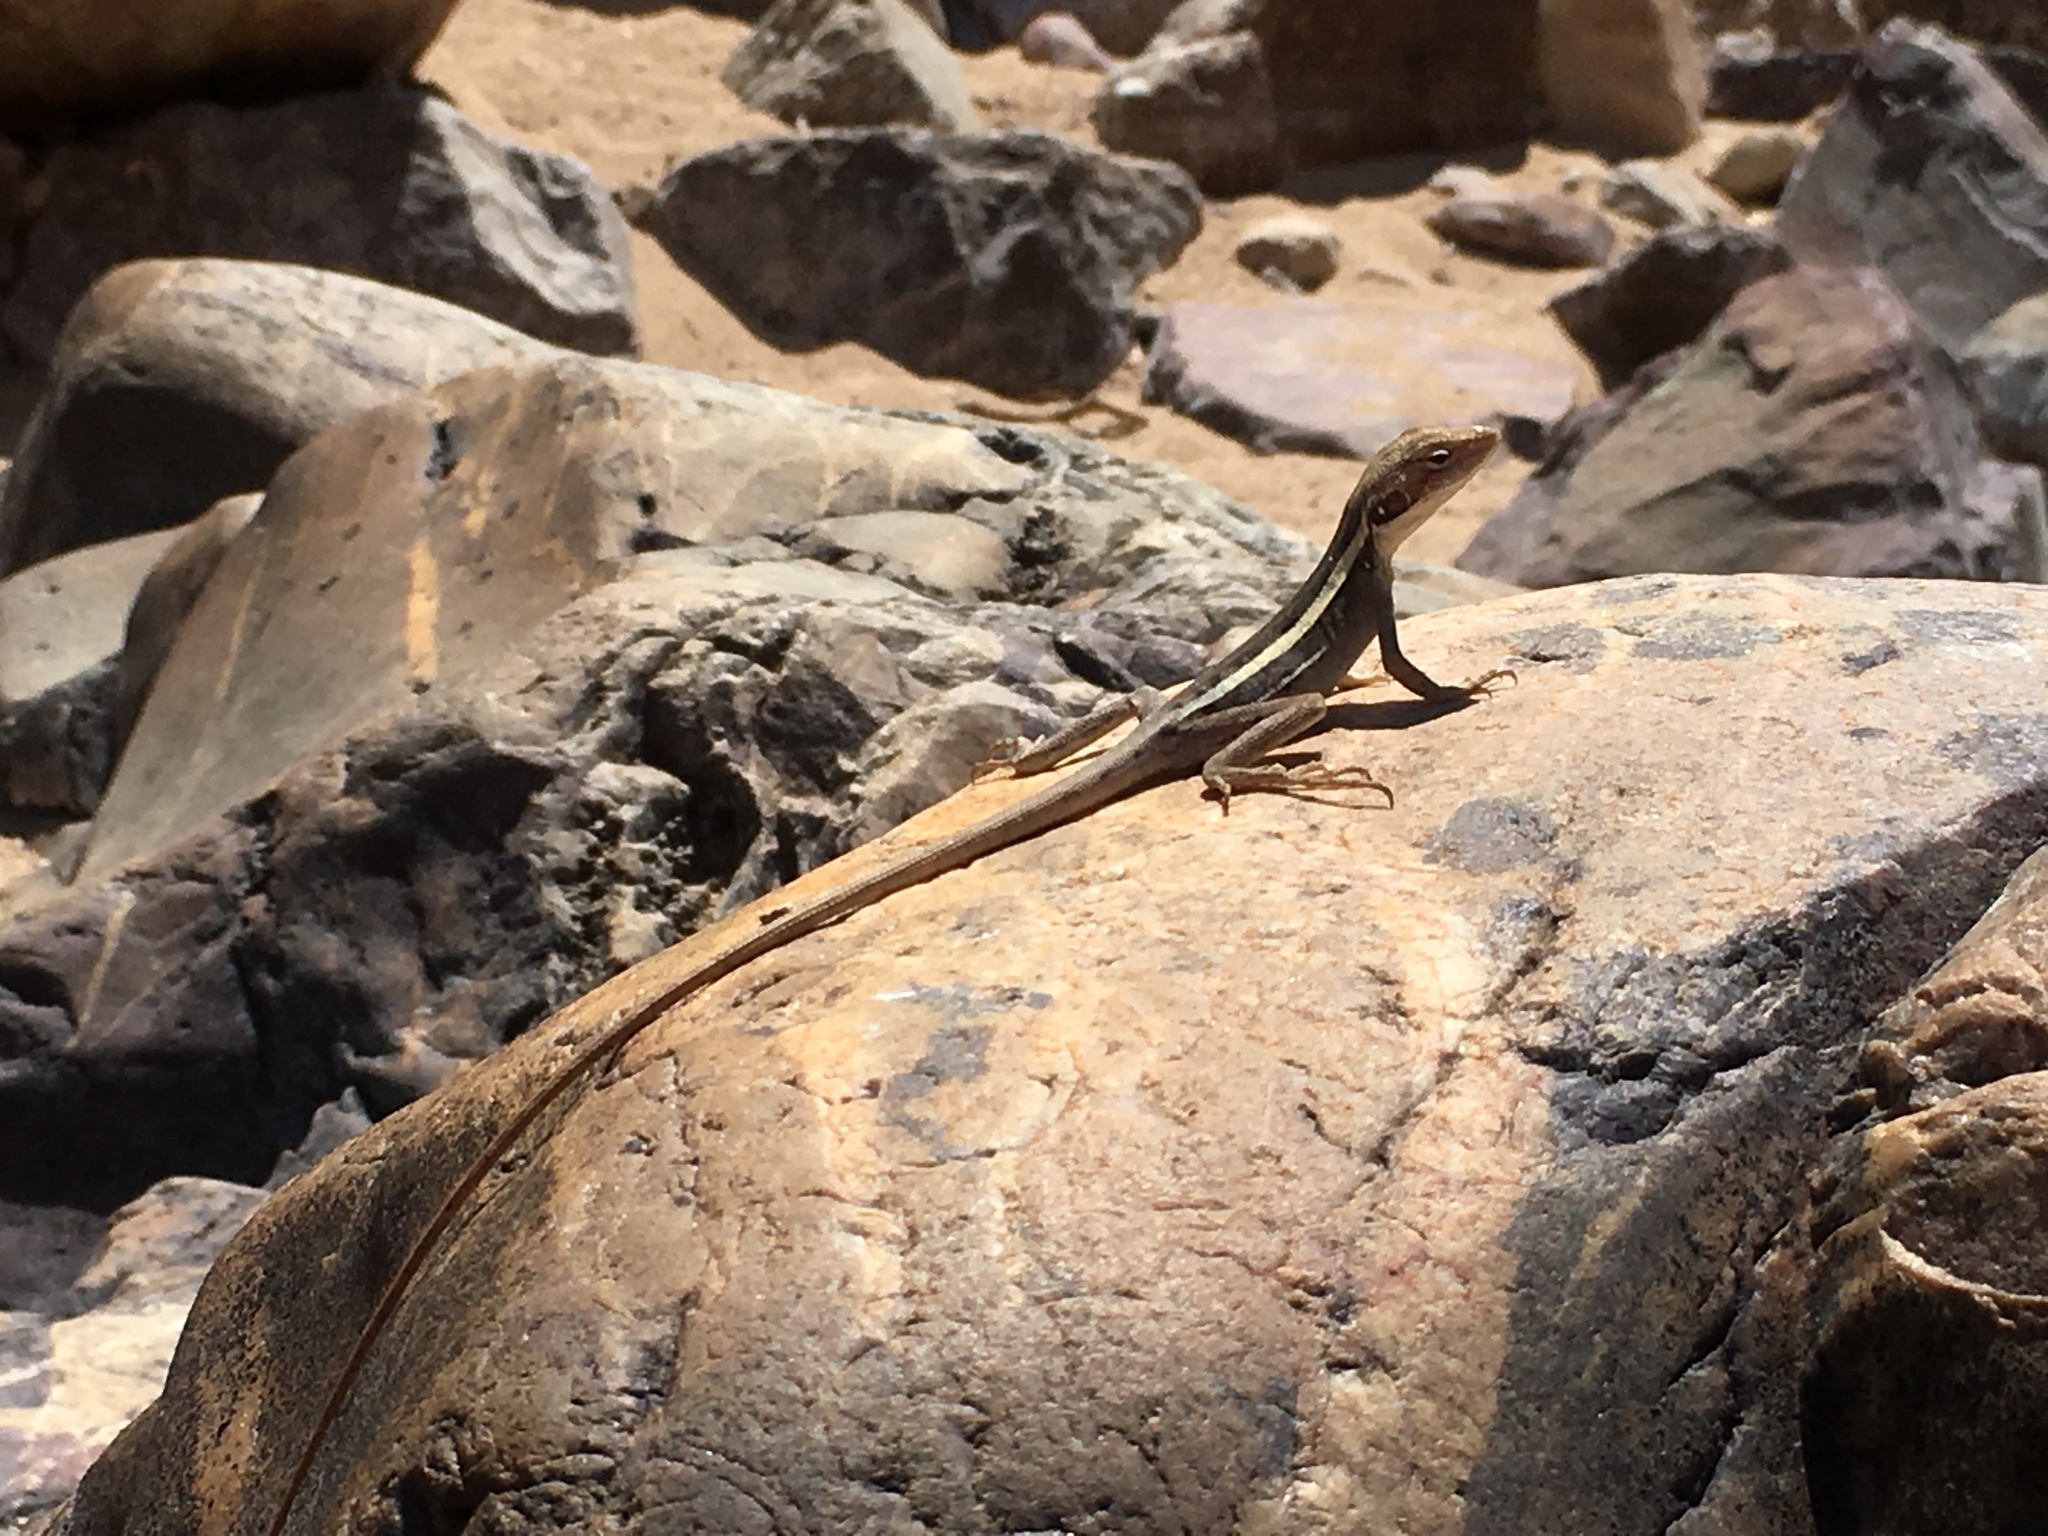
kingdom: Animalia
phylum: Chordata
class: Squamata
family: Agamidae
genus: Gowidon
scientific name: Gowidon longirostris
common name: Long-nosed water dragon
